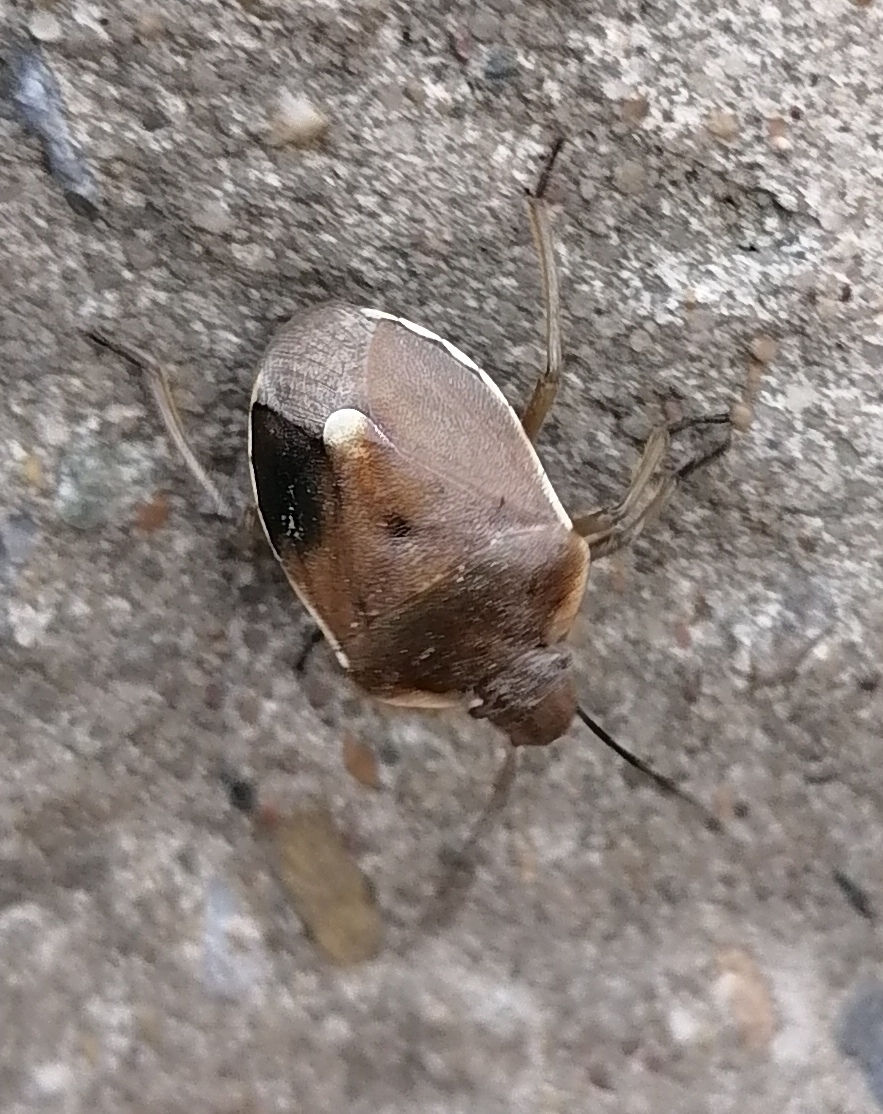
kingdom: Animalia
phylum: Arthropoda
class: Insecta
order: Hemiptera
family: Pentatomidae
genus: Chlorochroa
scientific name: Chlorochroa pinicola
